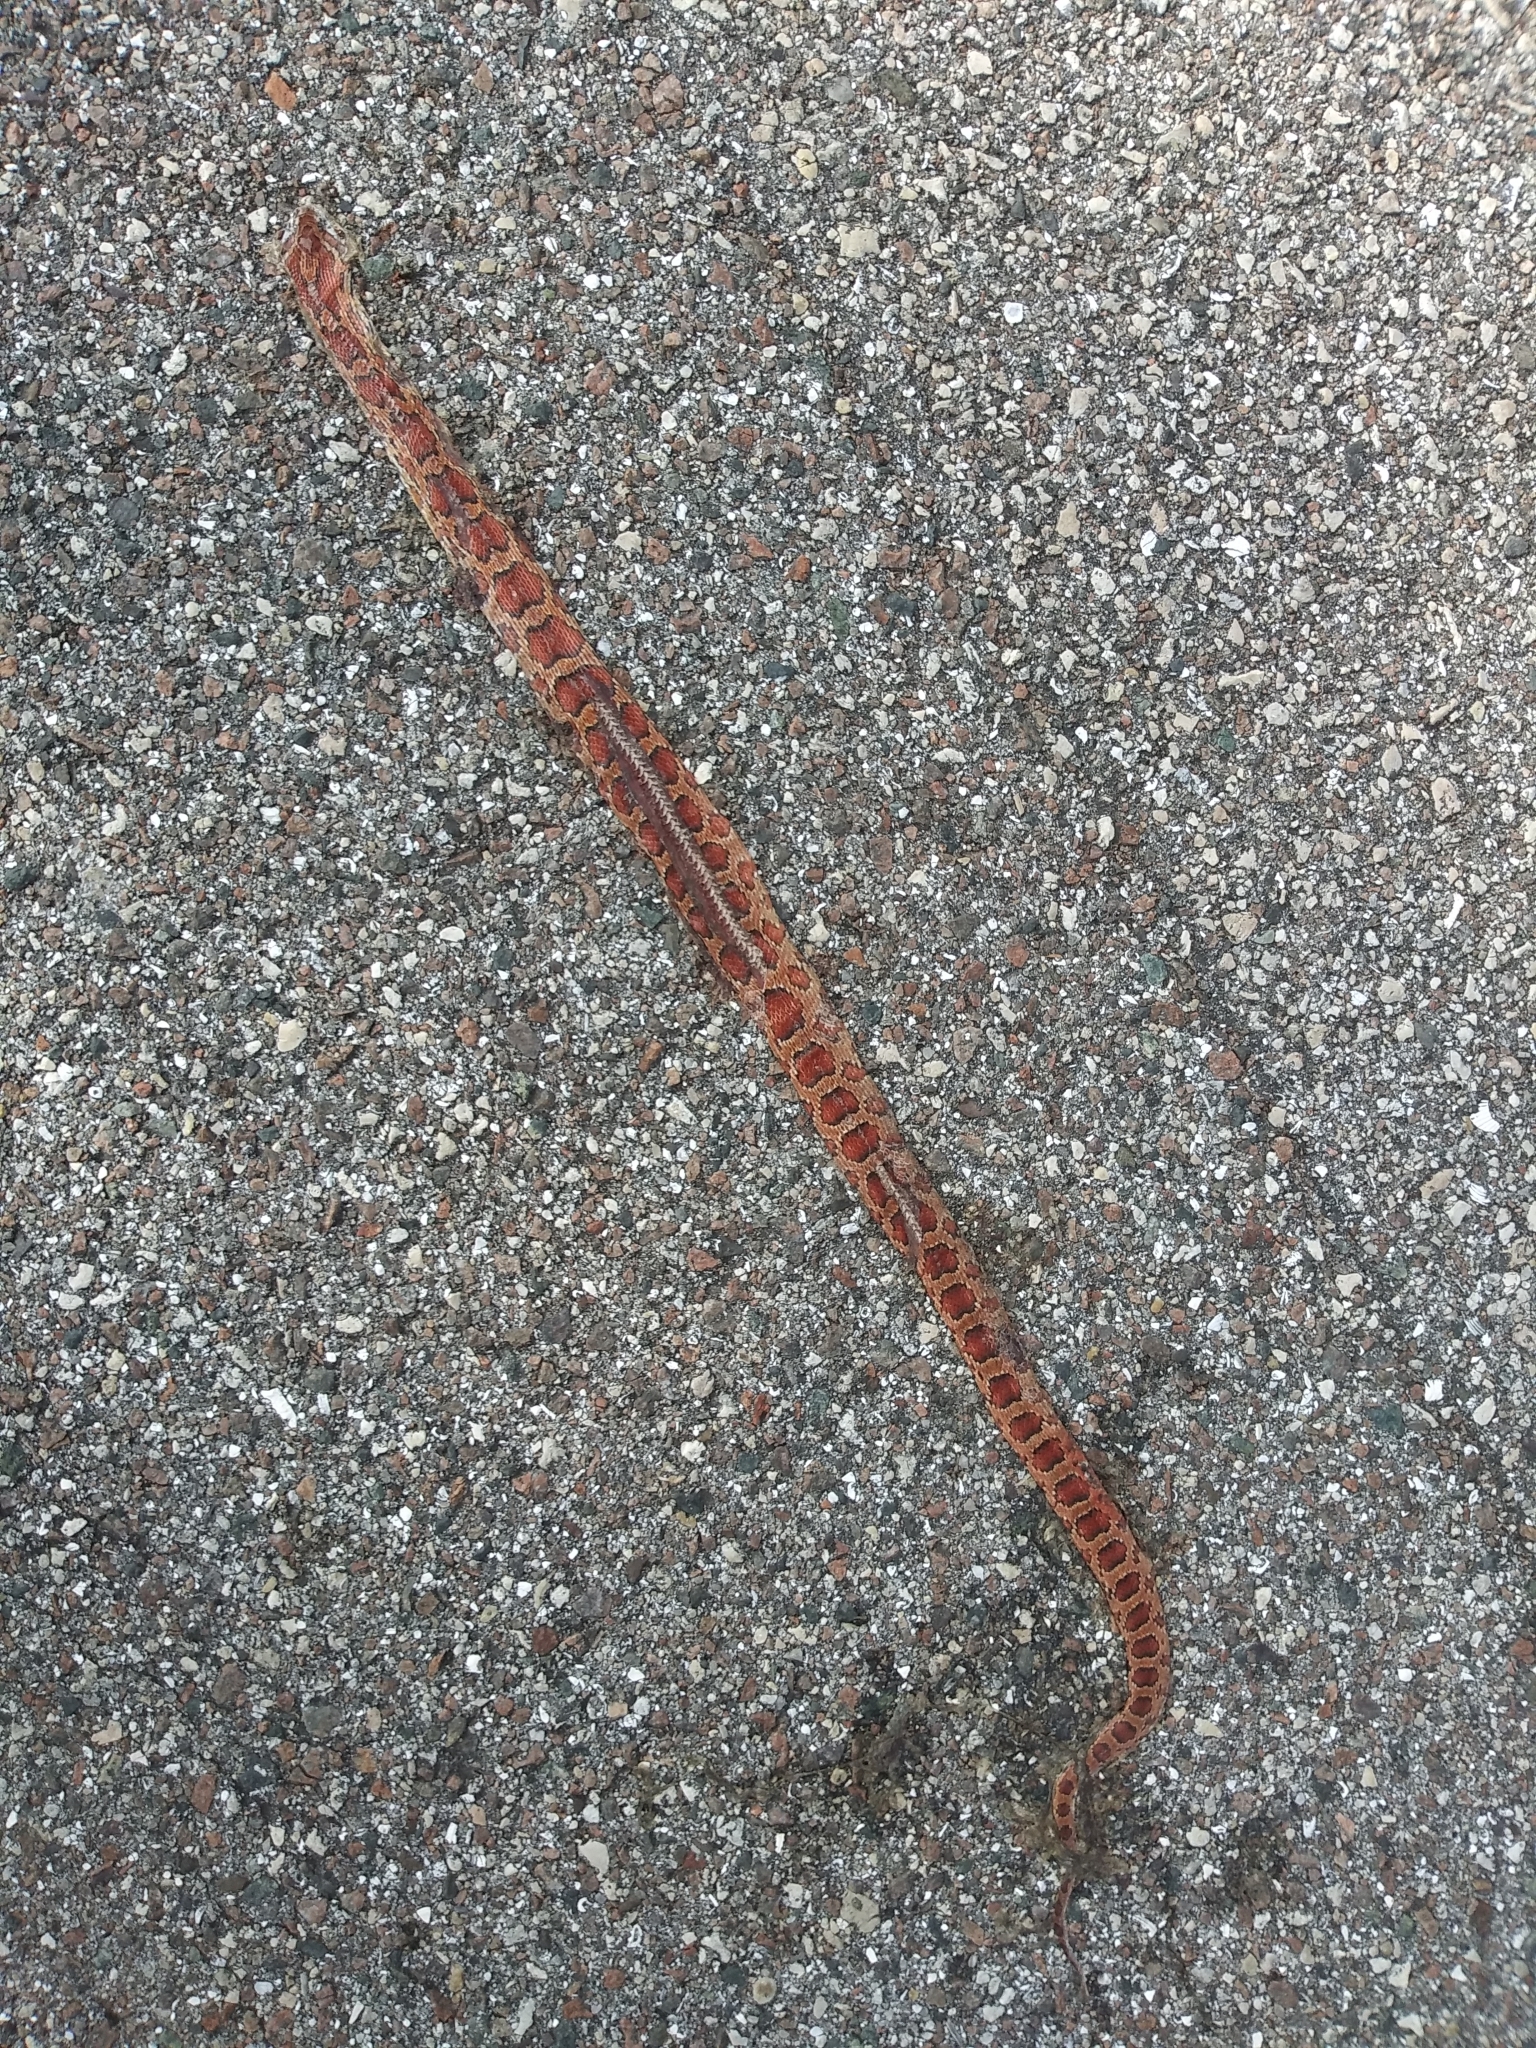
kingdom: Animalia
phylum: Chordata
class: Squamata
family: Colubridae
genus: Pantherophis
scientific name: Pantherophis guttatus
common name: Red cornsnake
